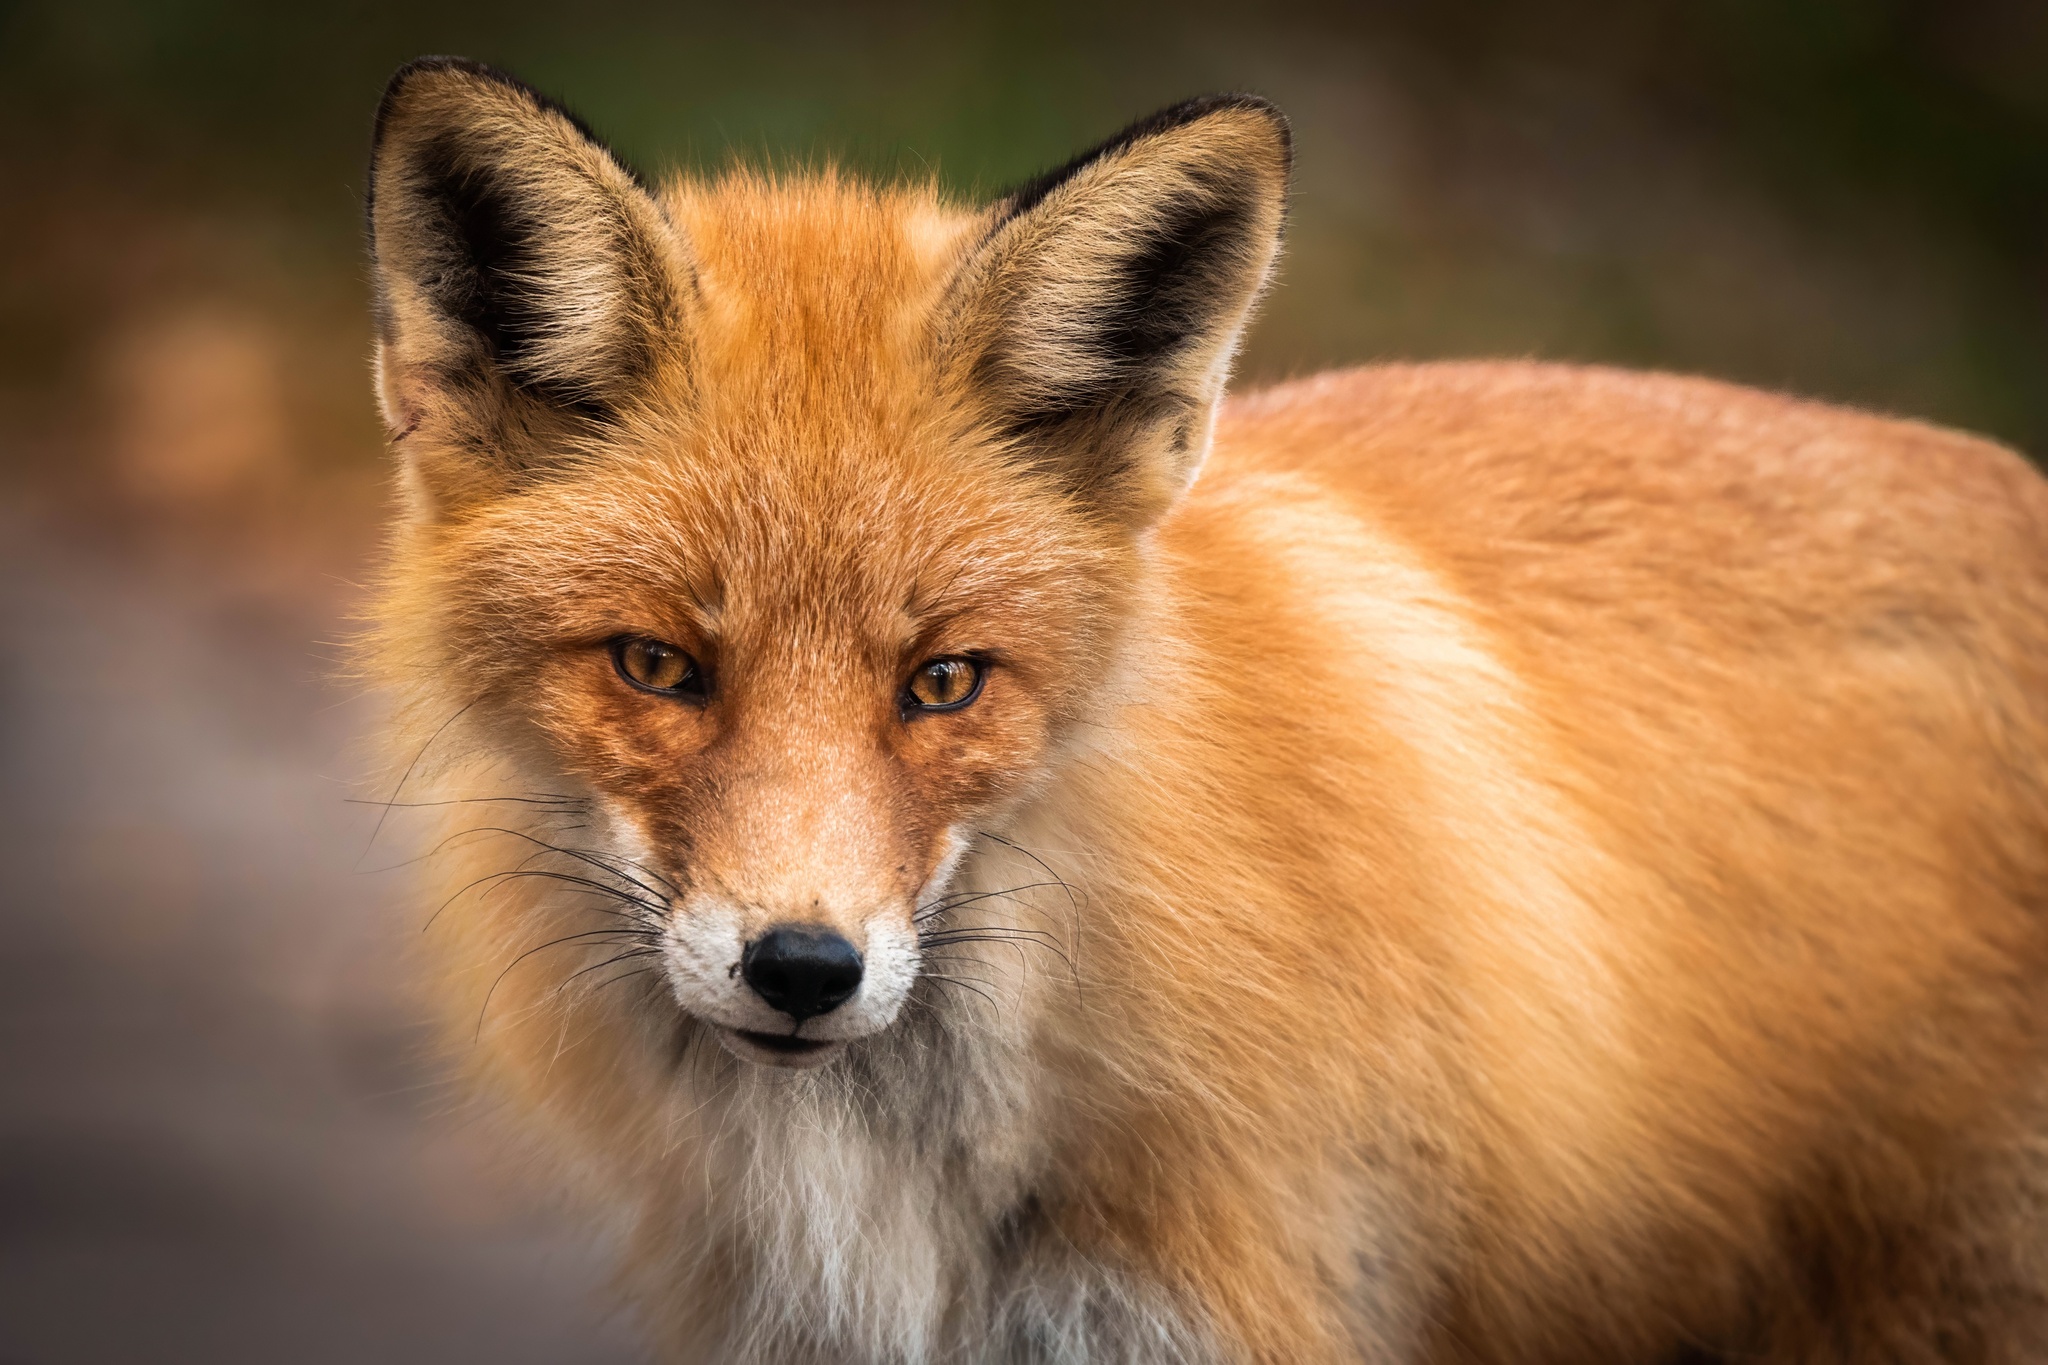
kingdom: Animalia
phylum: Chordata
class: Mammalia
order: Carnivora
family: Canidae
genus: Vulpes
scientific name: Vulpes vulpes
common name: Red fox
